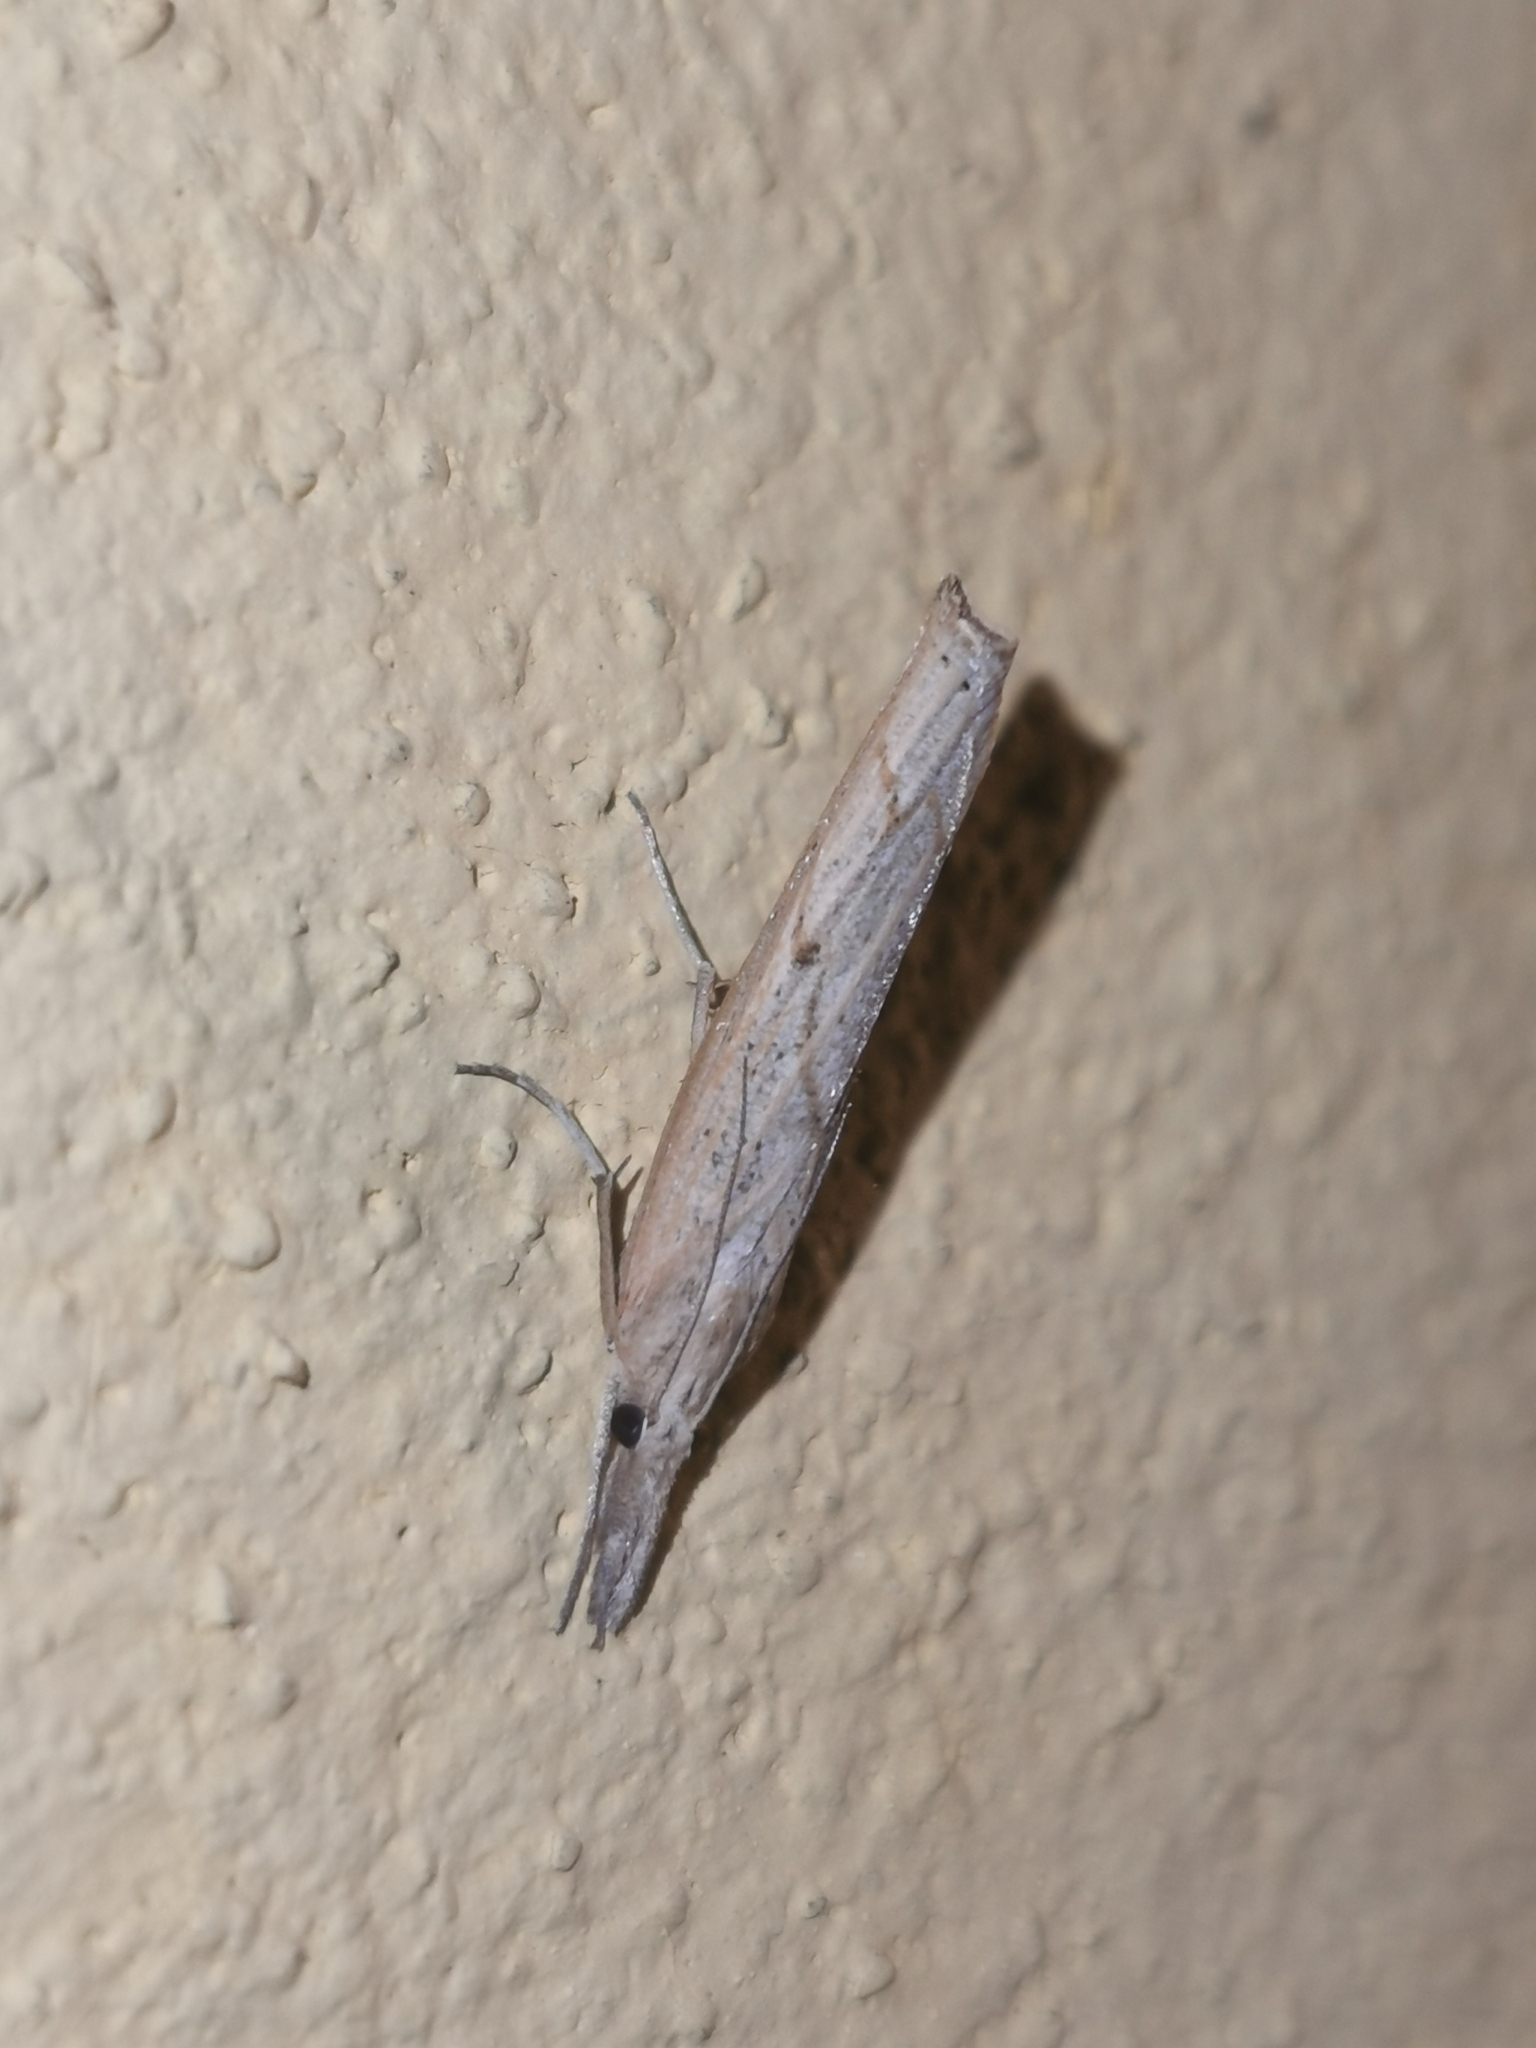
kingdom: Animalia
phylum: Arthropoda
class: Insecta
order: Lepidoptera
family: Crambidae
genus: Pediasia
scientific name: Pediasia contaminella
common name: Waste grass-veneer
